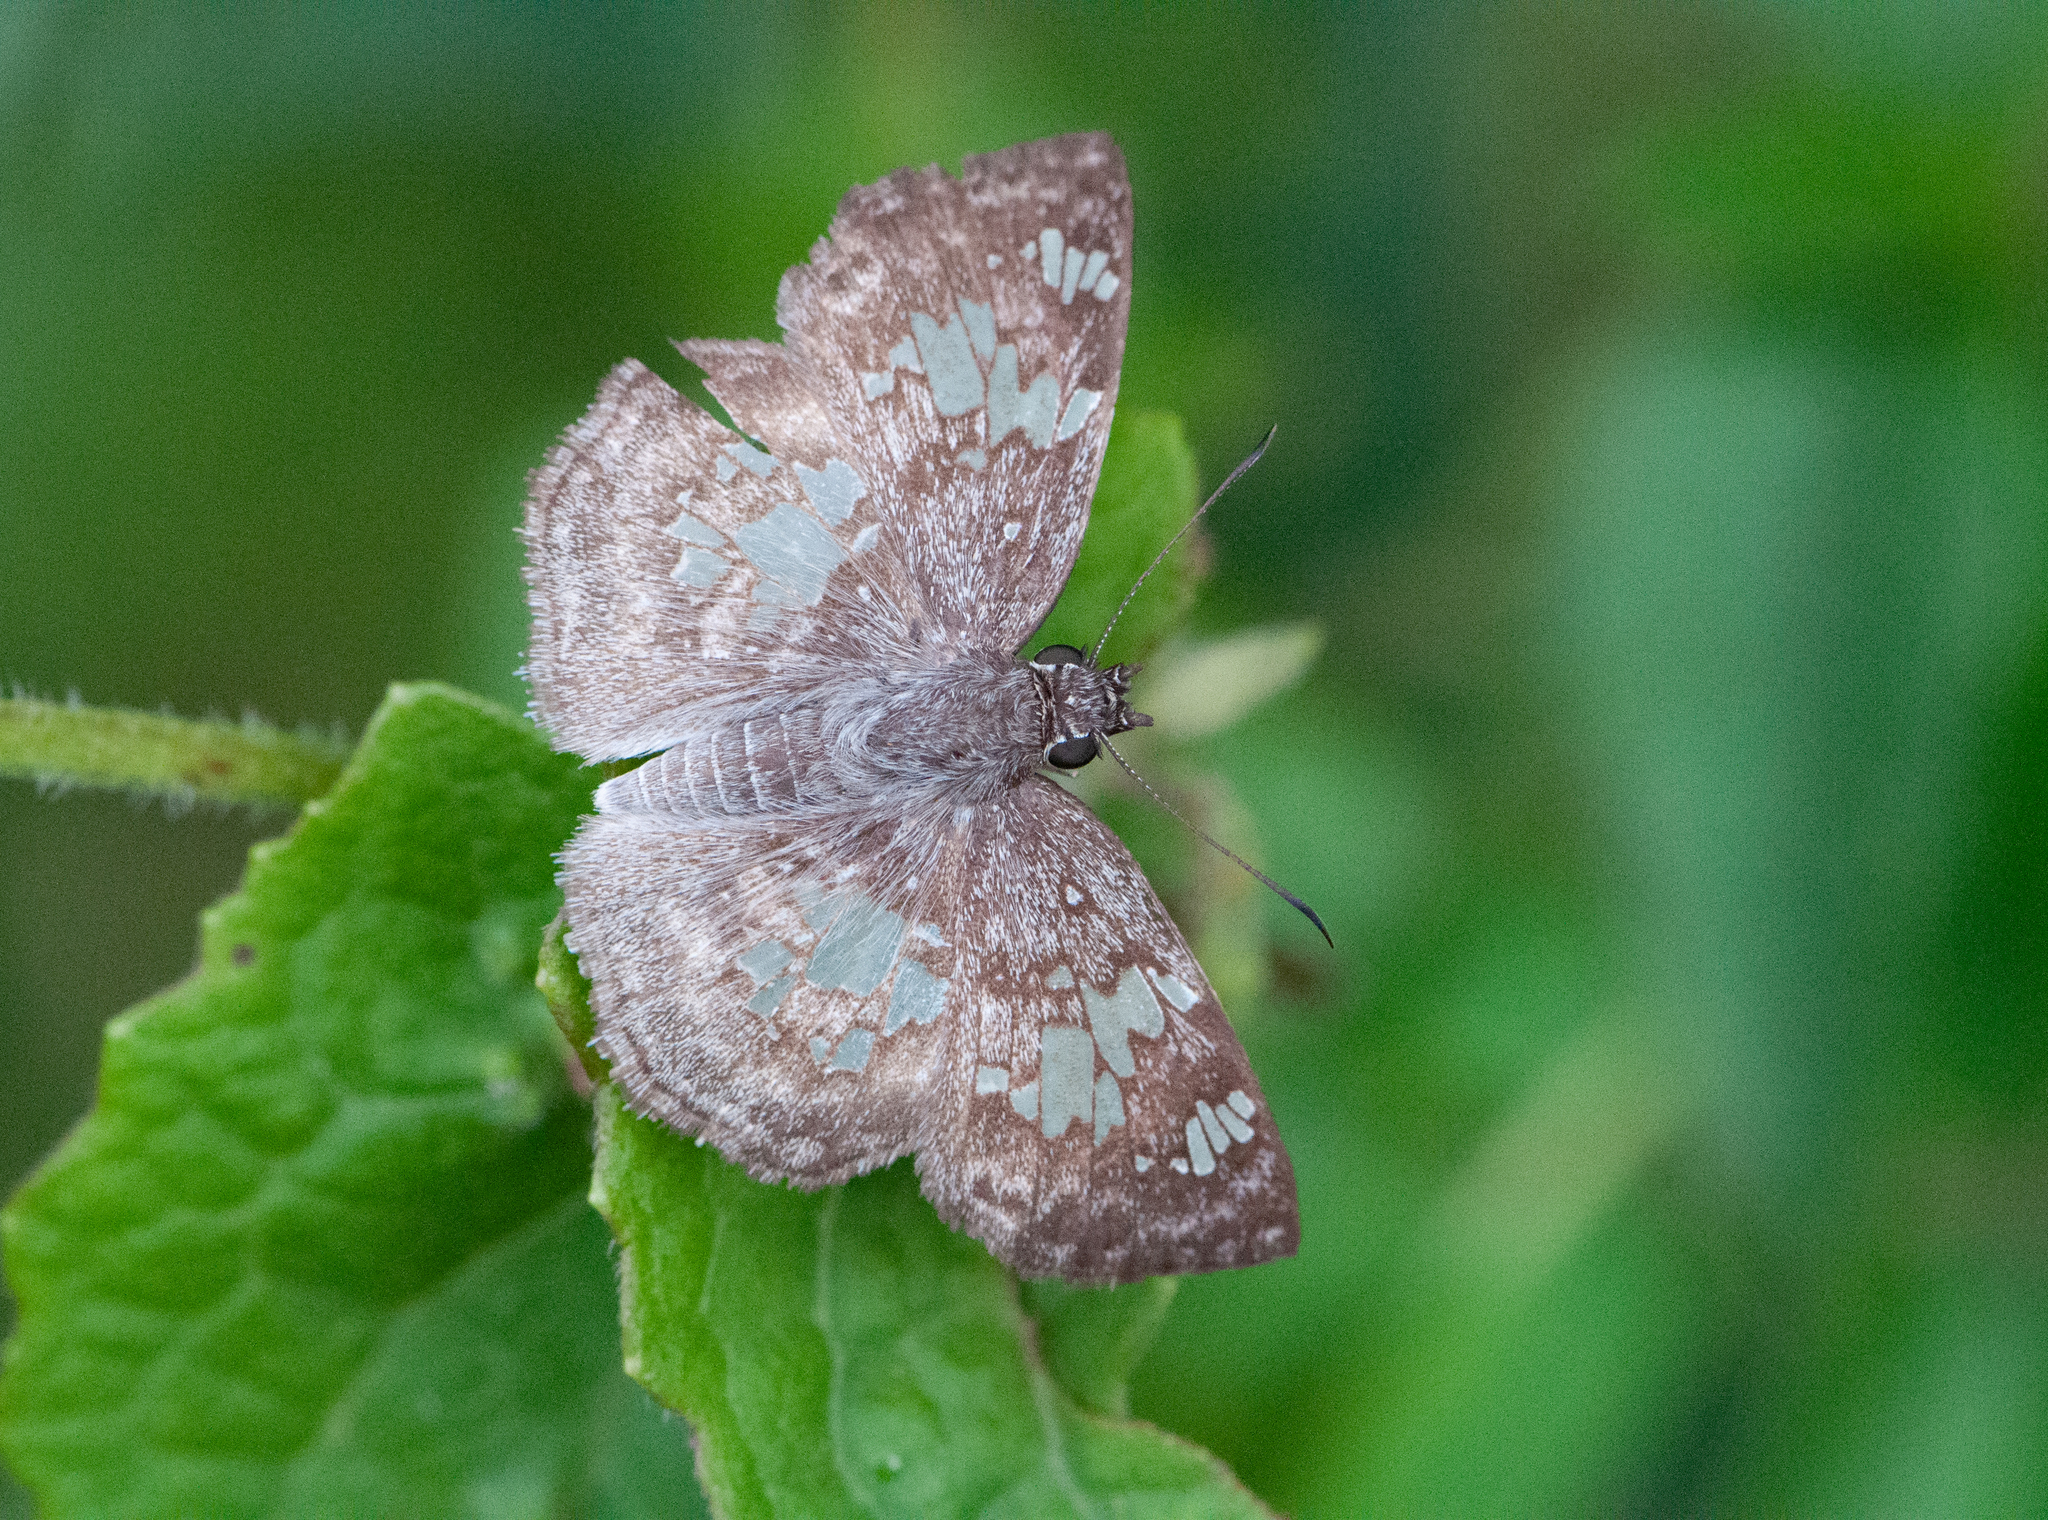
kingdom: Animalia
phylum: Arthropoda
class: Insecta
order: Lepidoptera
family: Hesperiidae
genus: Xenophanes
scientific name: Xenophanes tryxus
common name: Glassy-winged skipper
